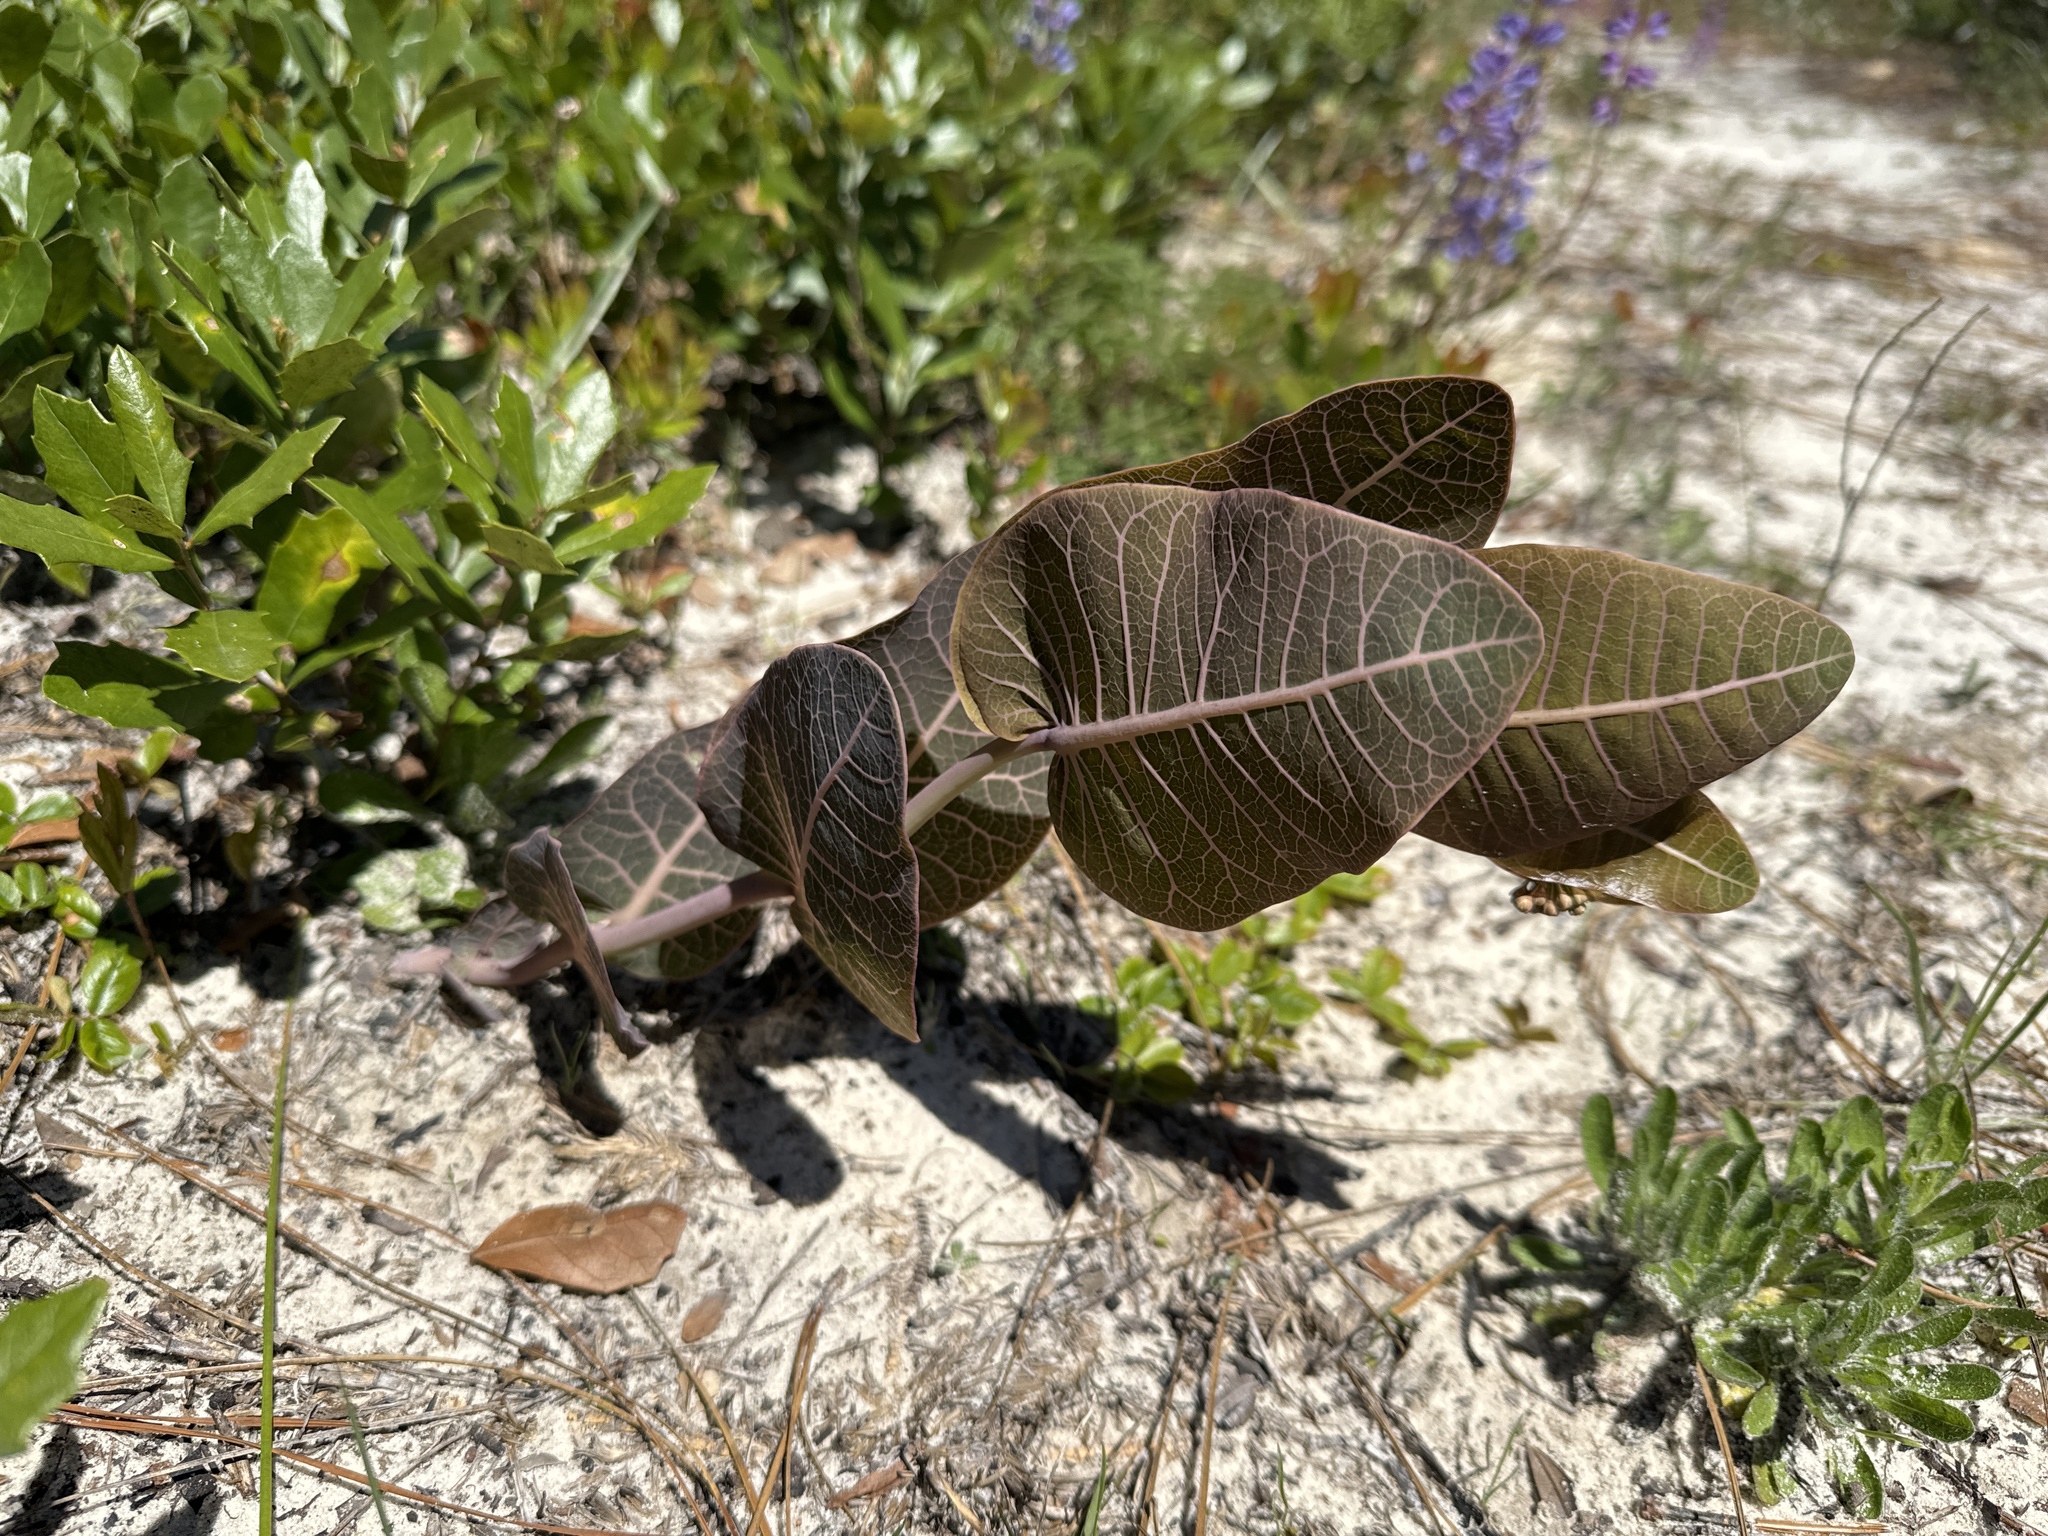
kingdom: Plantae
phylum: Tracheophyta
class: Magnoliopsida
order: Gentianales
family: Apocynaceae
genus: Asclepias
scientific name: Asclepias humistrata
